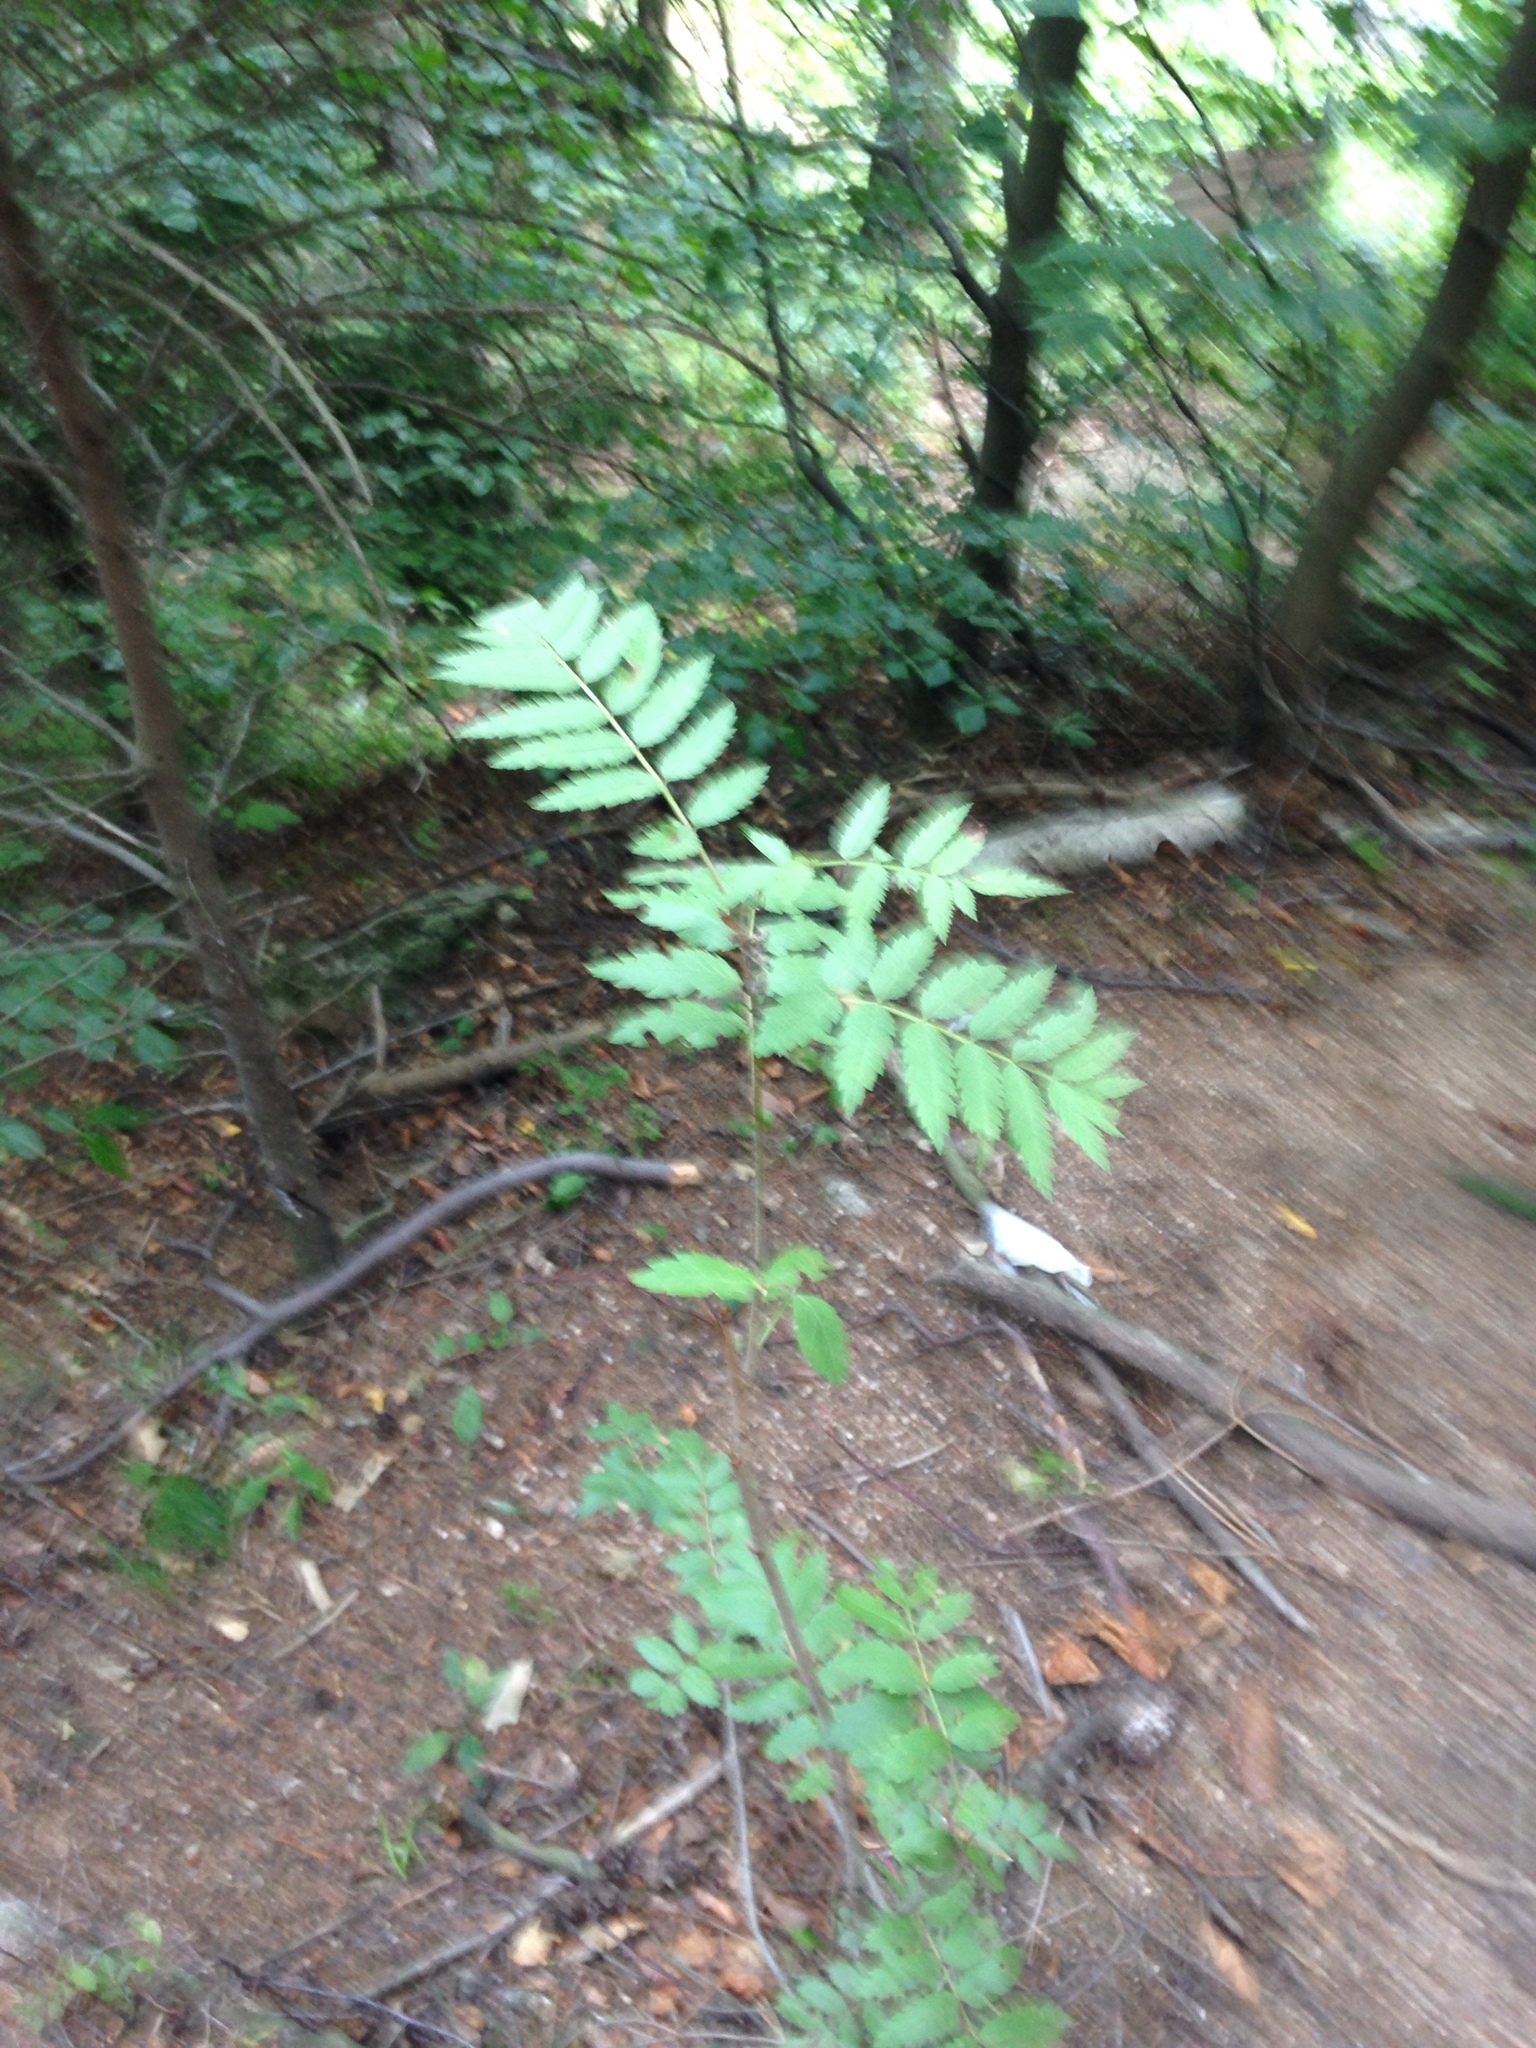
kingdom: Plantae
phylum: Tracheophyta
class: Magnoliopsida
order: Rosales
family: Rosaceae
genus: Sorbus
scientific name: Sorbus aucuparia
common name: Rowan
